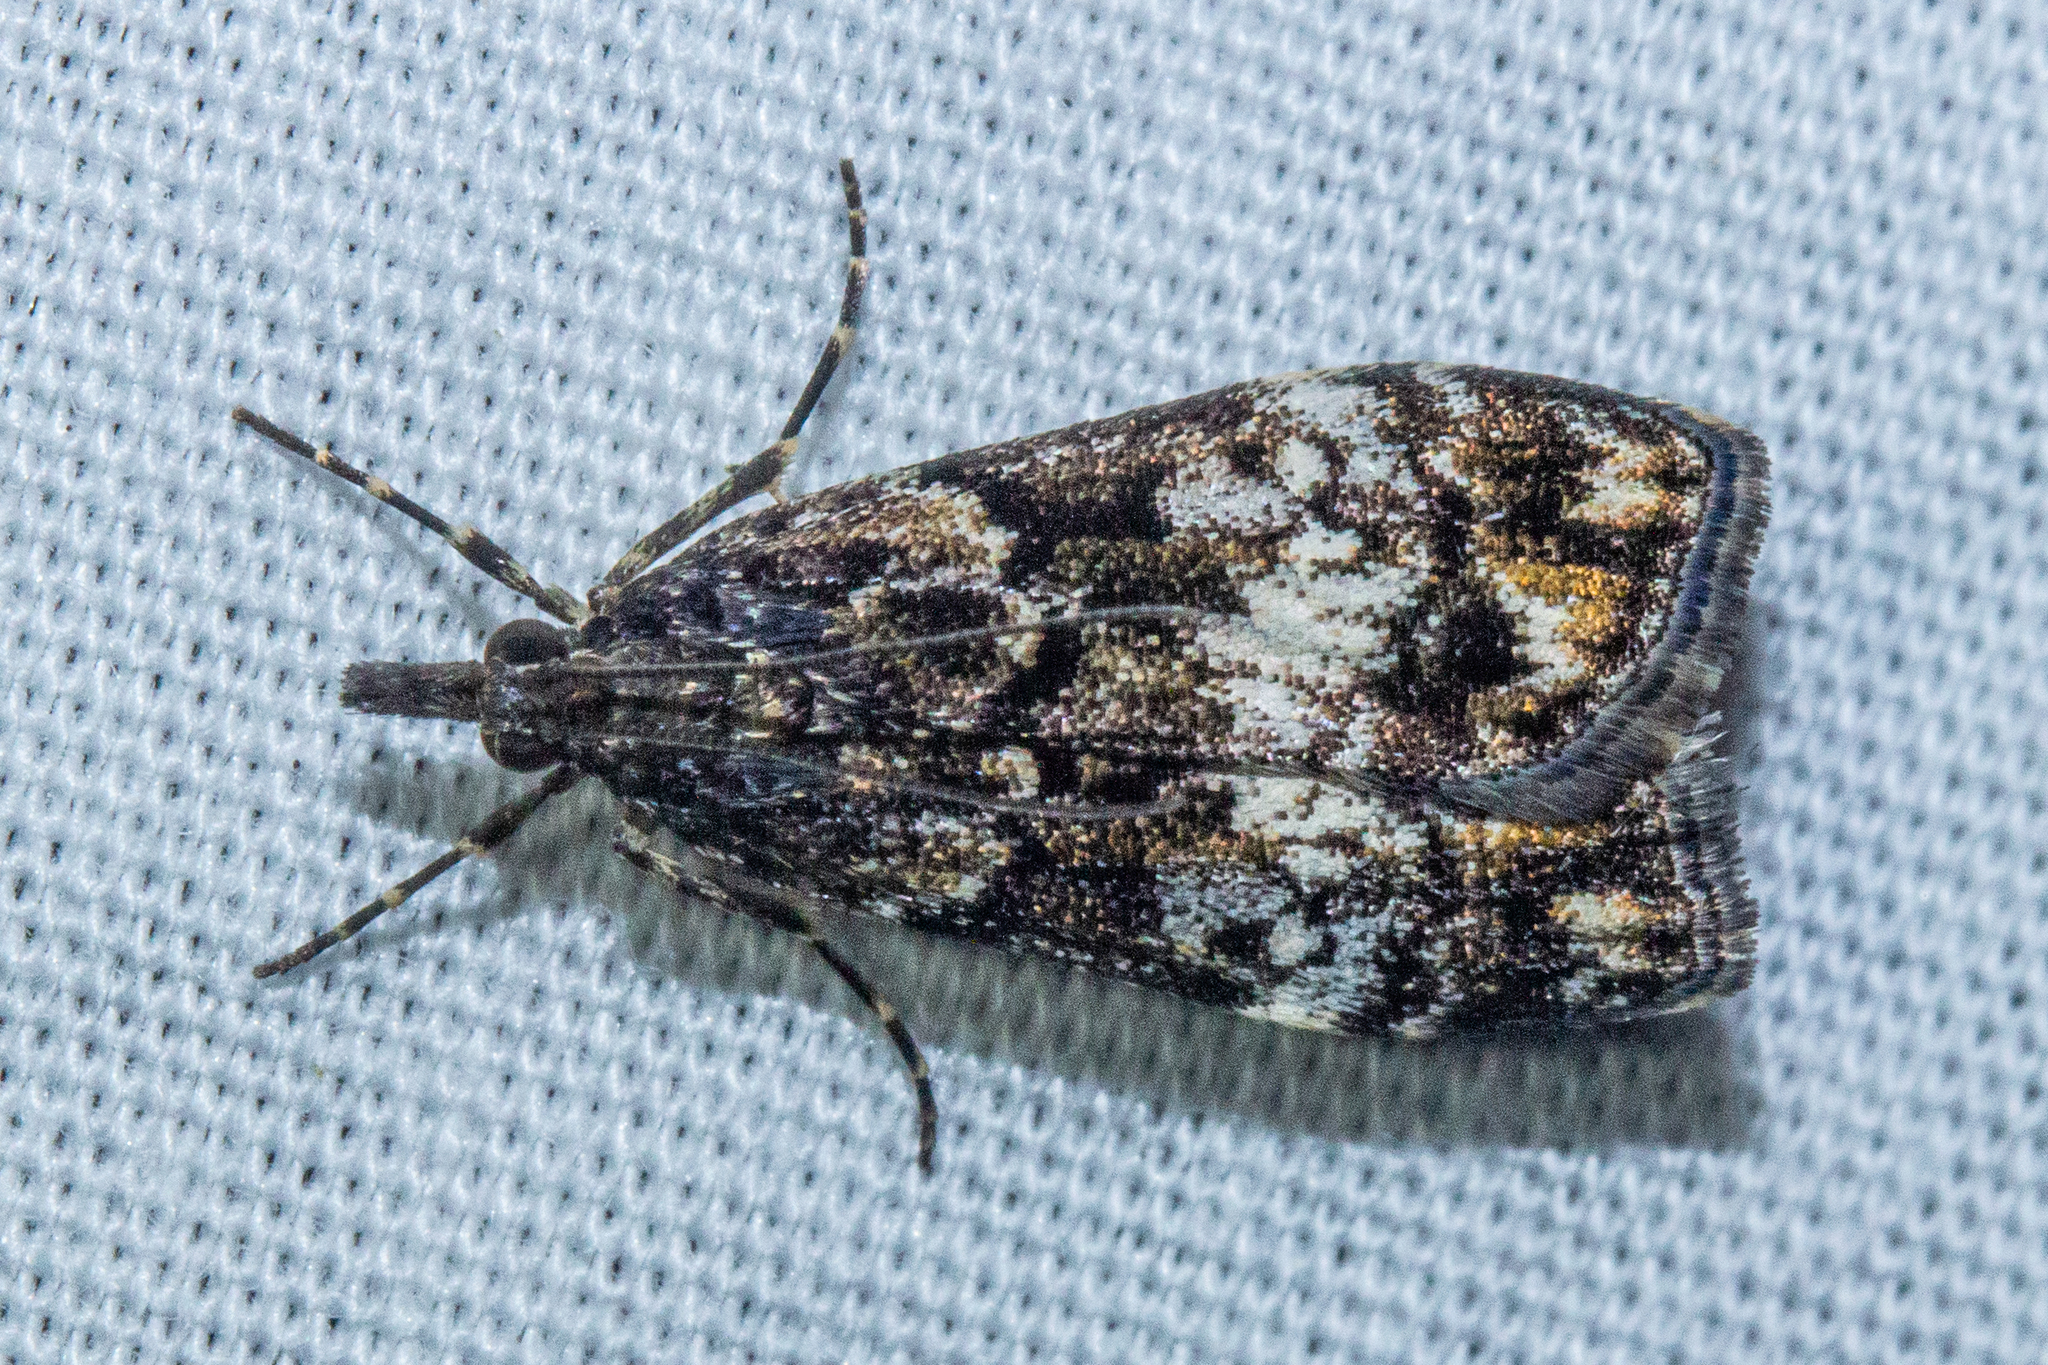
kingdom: Animalia
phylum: Arthropoda
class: Insecta
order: Lepidoptera
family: Crambidae
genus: Eudonia
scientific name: Eudonia dinodes
